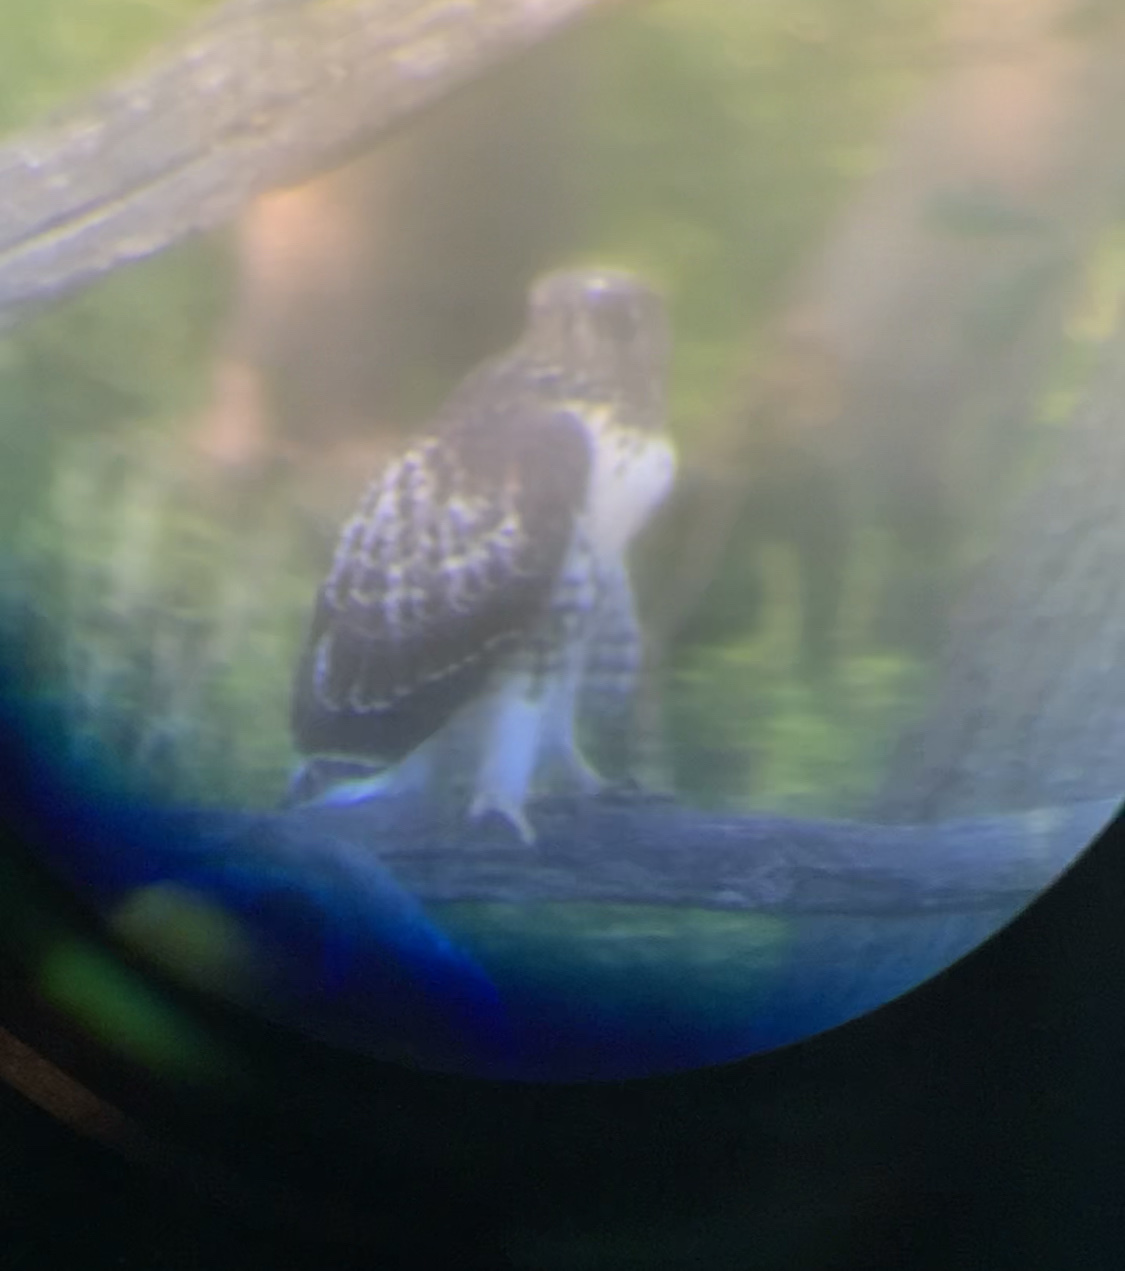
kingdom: Animalia
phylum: Chordata
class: Aves
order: Accipitriformes
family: Accipitridae
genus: Buteo
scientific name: Buteo jamaicensis
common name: Red-tailed hawk
